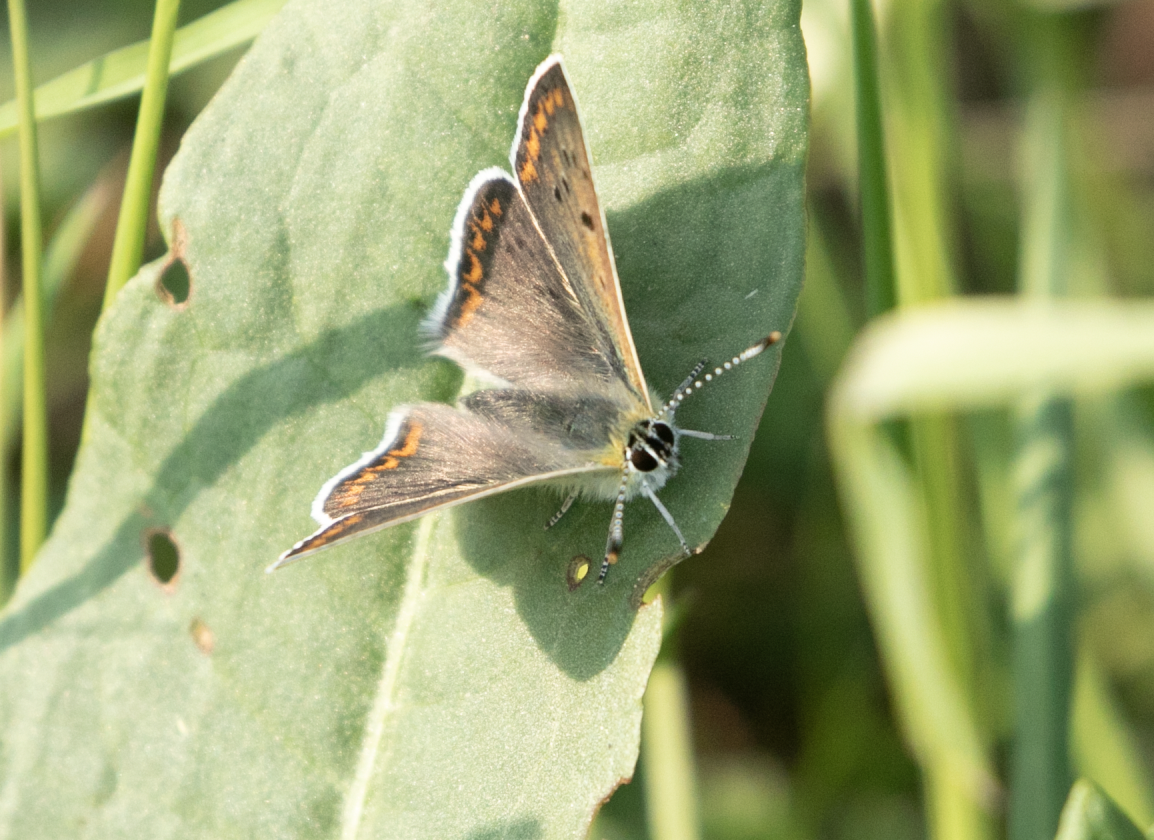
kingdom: Animalia
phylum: Arthropoda
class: Insecta
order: Lepidoptera
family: Lycaenidae
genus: Loweia
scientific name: Loweia tityrus
